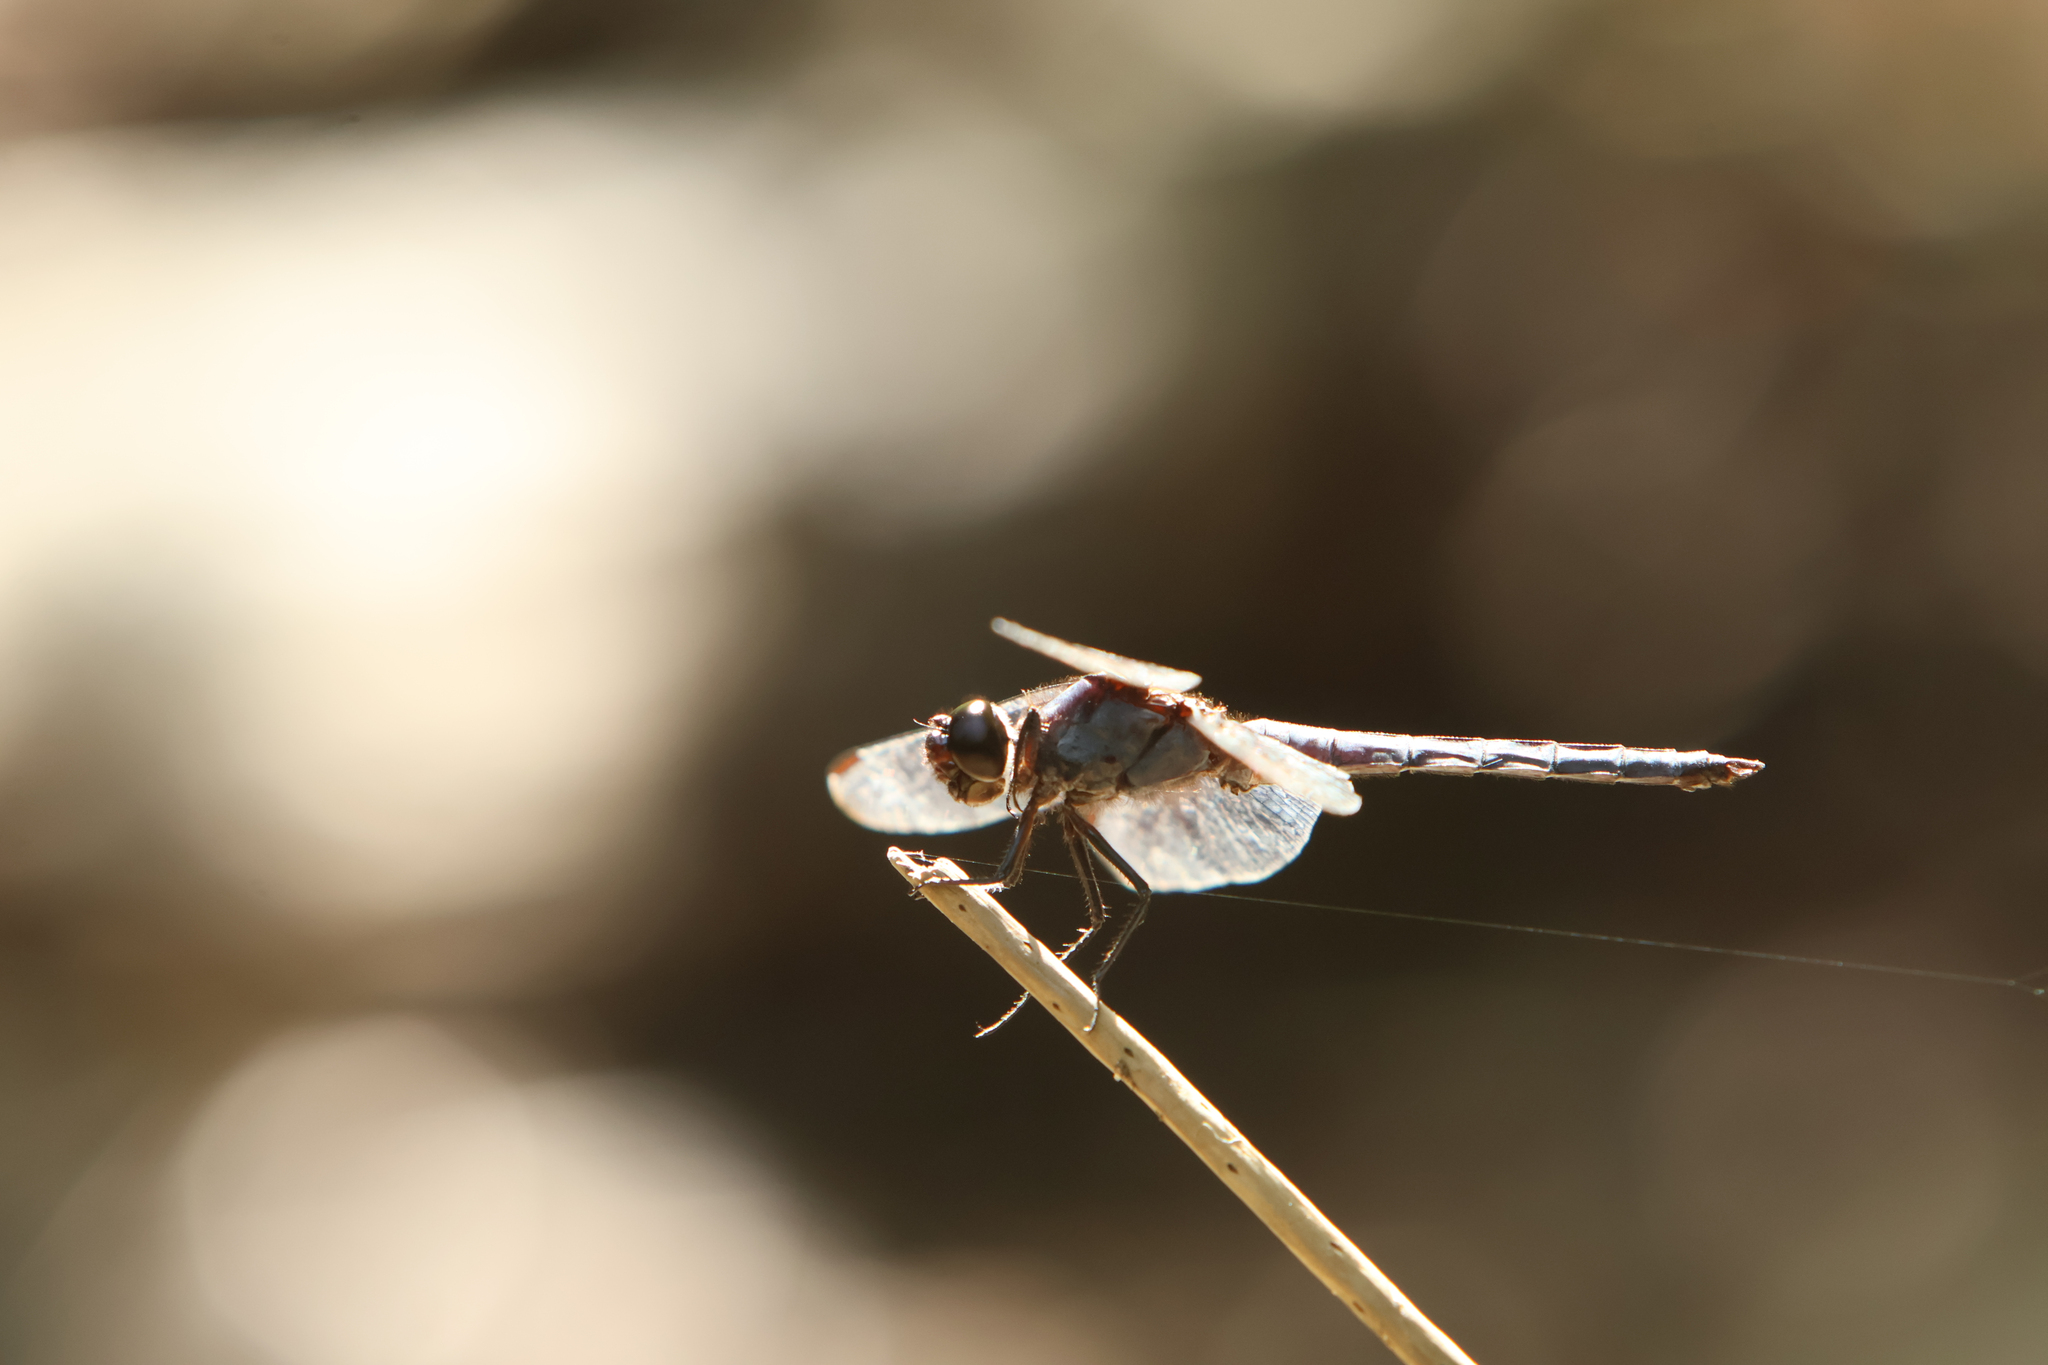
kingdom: Animalia
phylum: Arthropoda
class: Insecta
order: Odonata
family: Libellulidae
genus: Libellula
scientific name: Libellula incesta
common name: Slaty skimmer
